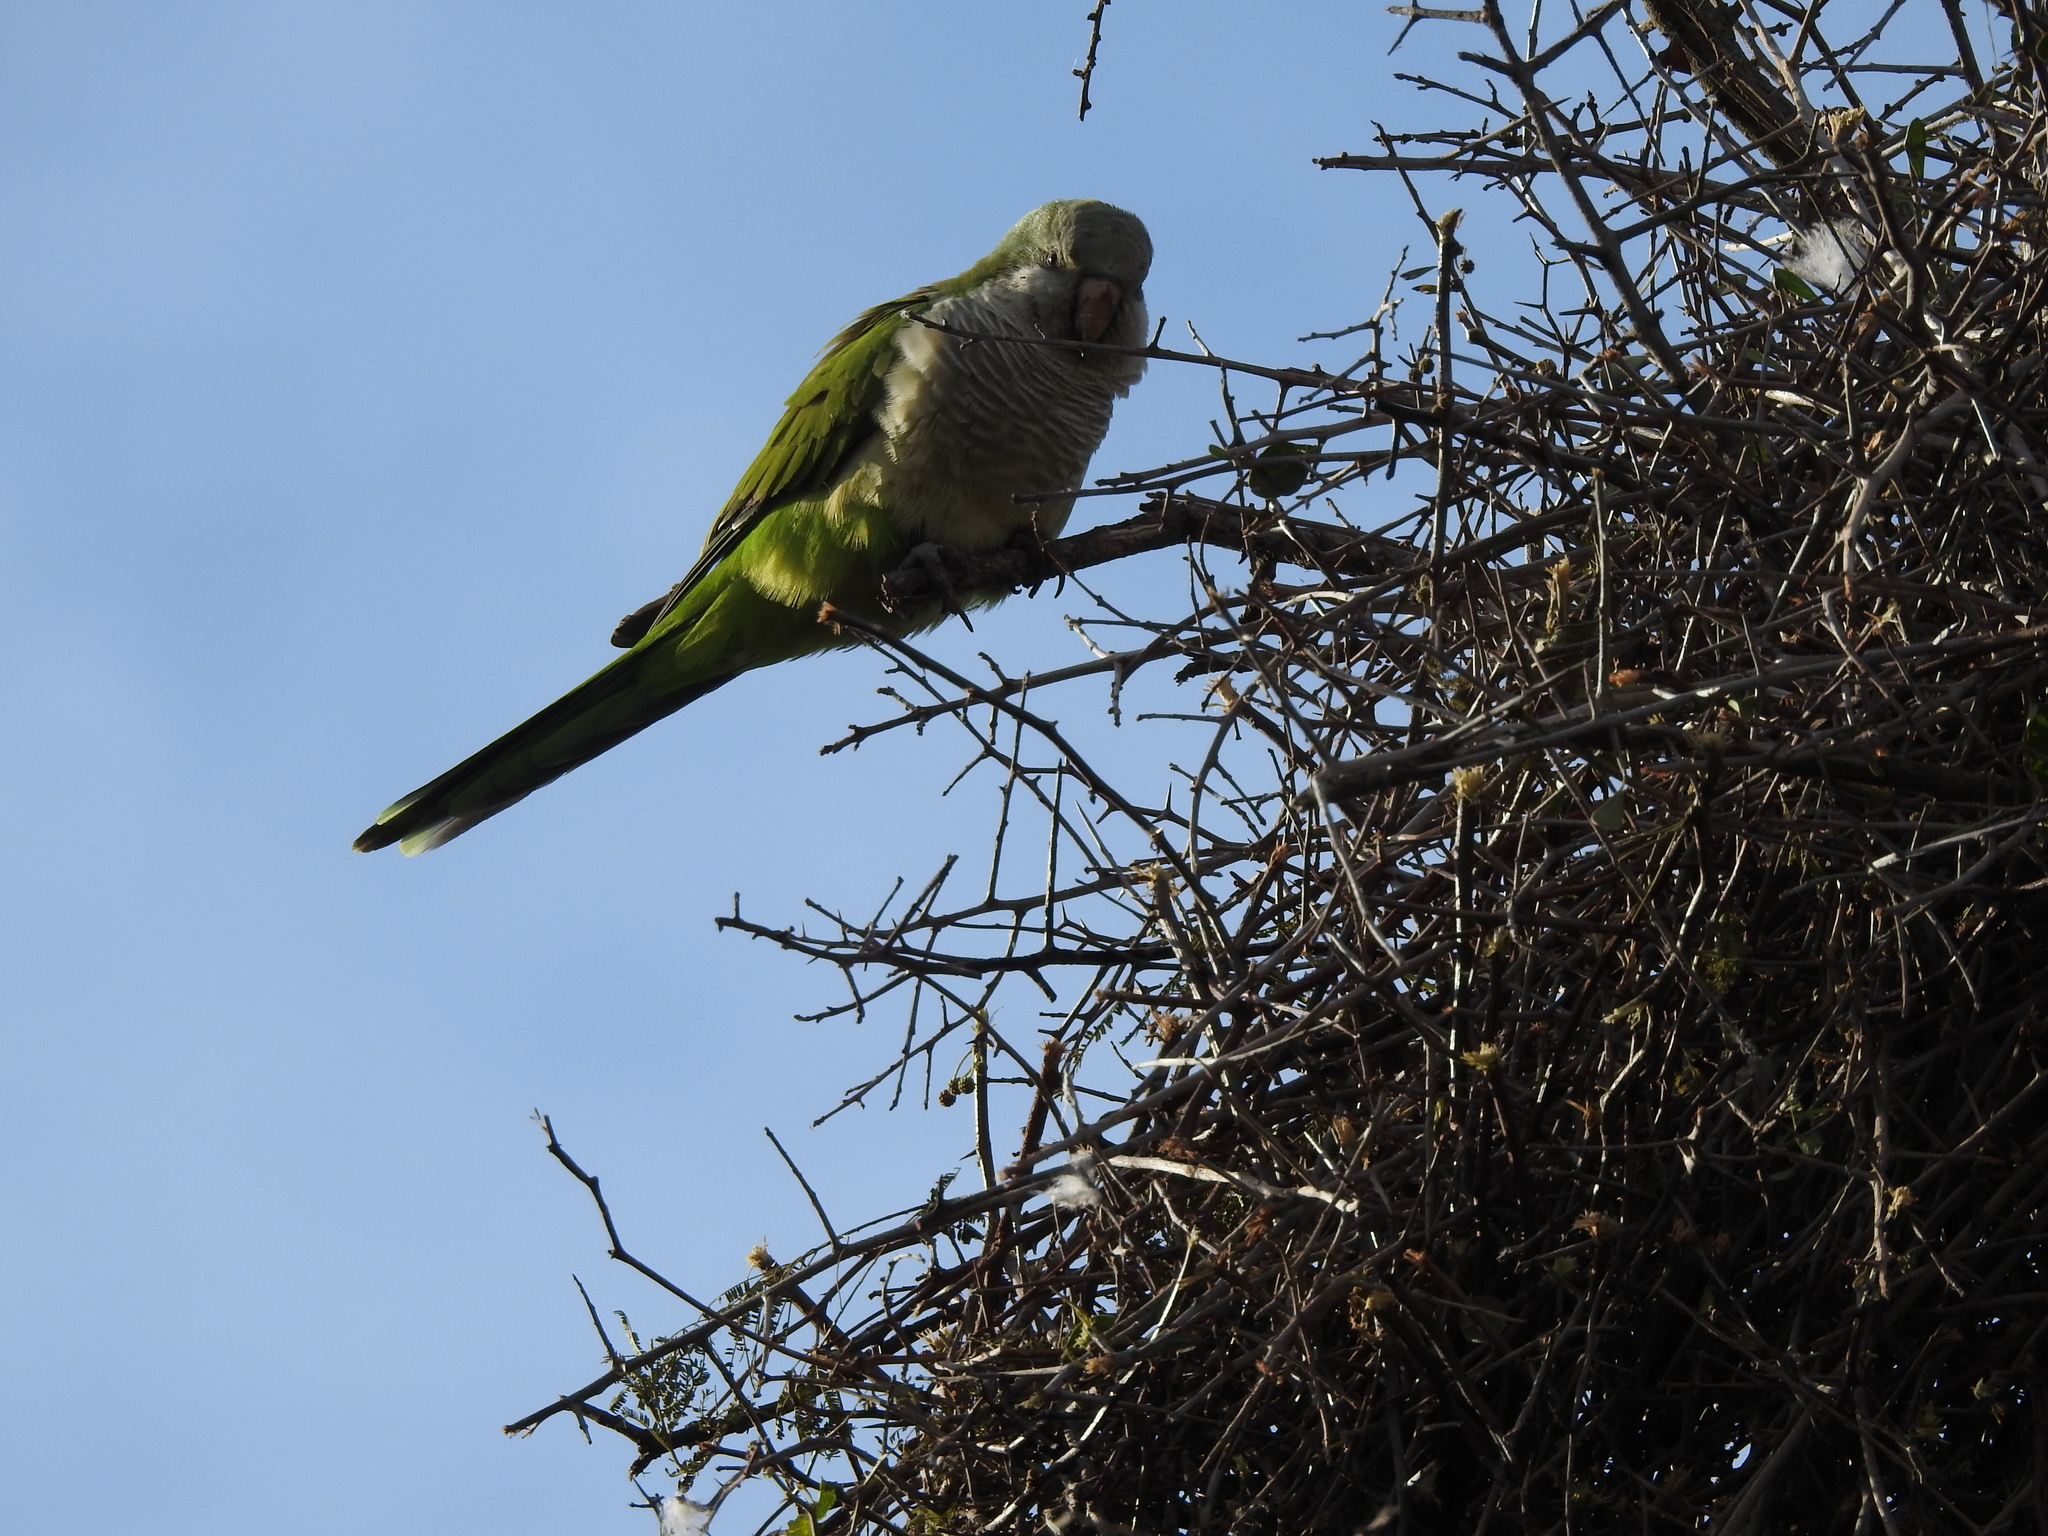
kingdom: Animalia
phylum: Chordata
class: Aves
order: Psittaciformes
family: Psittacidae
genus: Myiopsitta
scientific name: Myiopsitta monachus
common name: Monk parakeet
